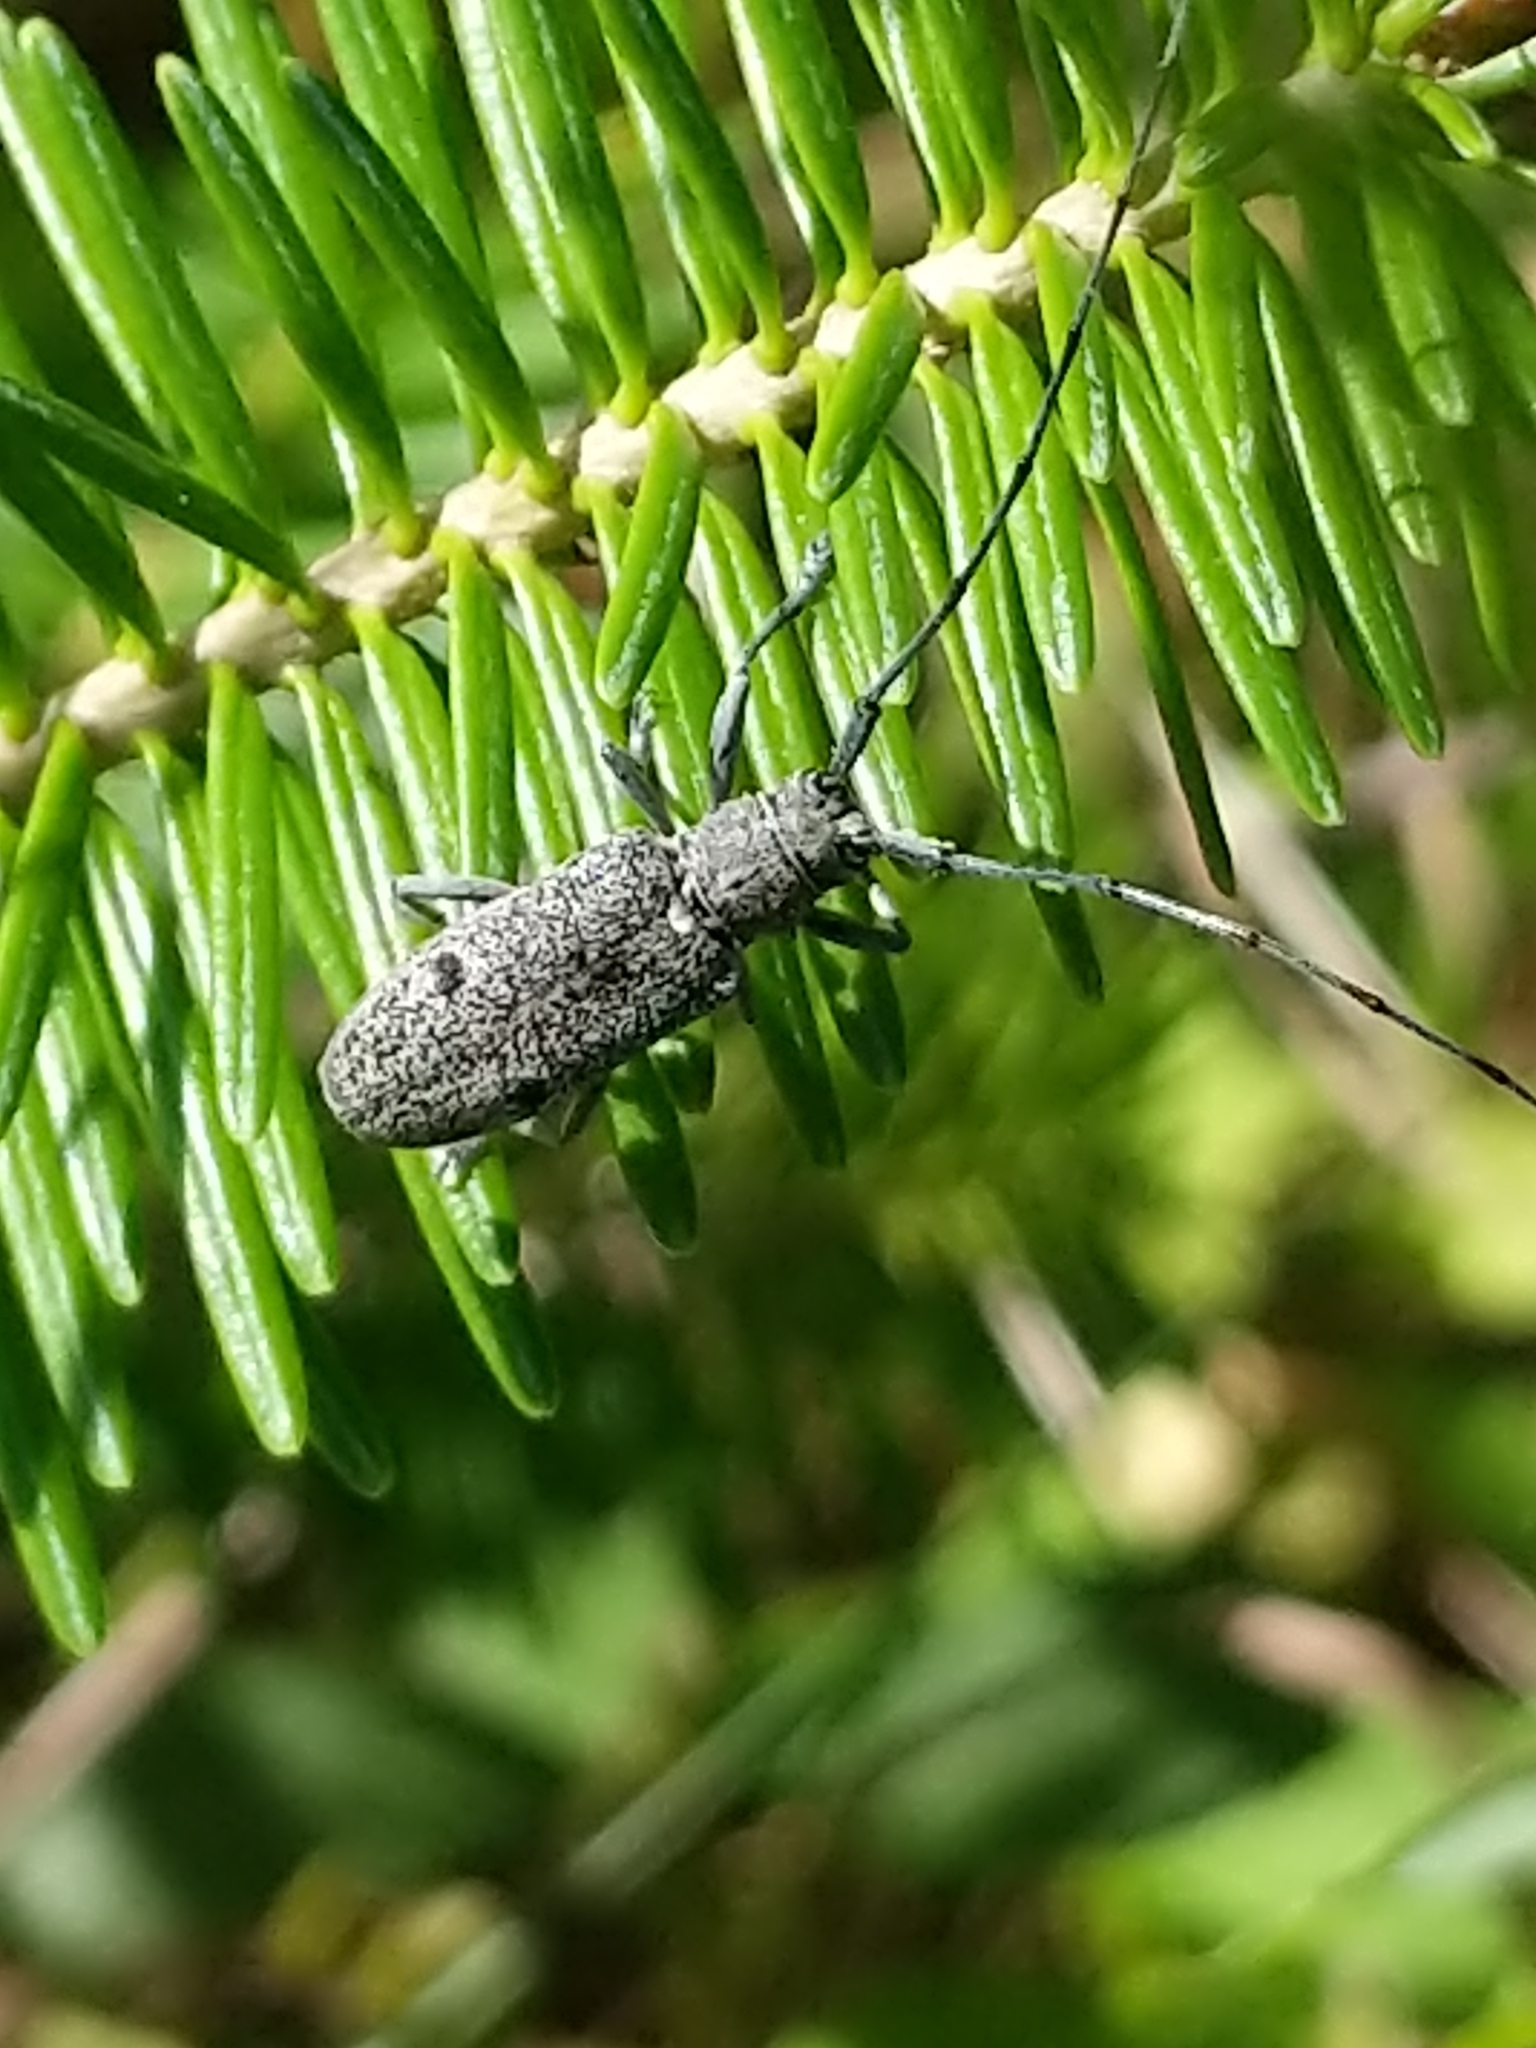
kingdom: Animalia
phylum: Arthropoda
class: Insecta
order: Coleoptera
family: Cerambycidae
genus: Microgoes
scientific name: Microgoes oculatus
